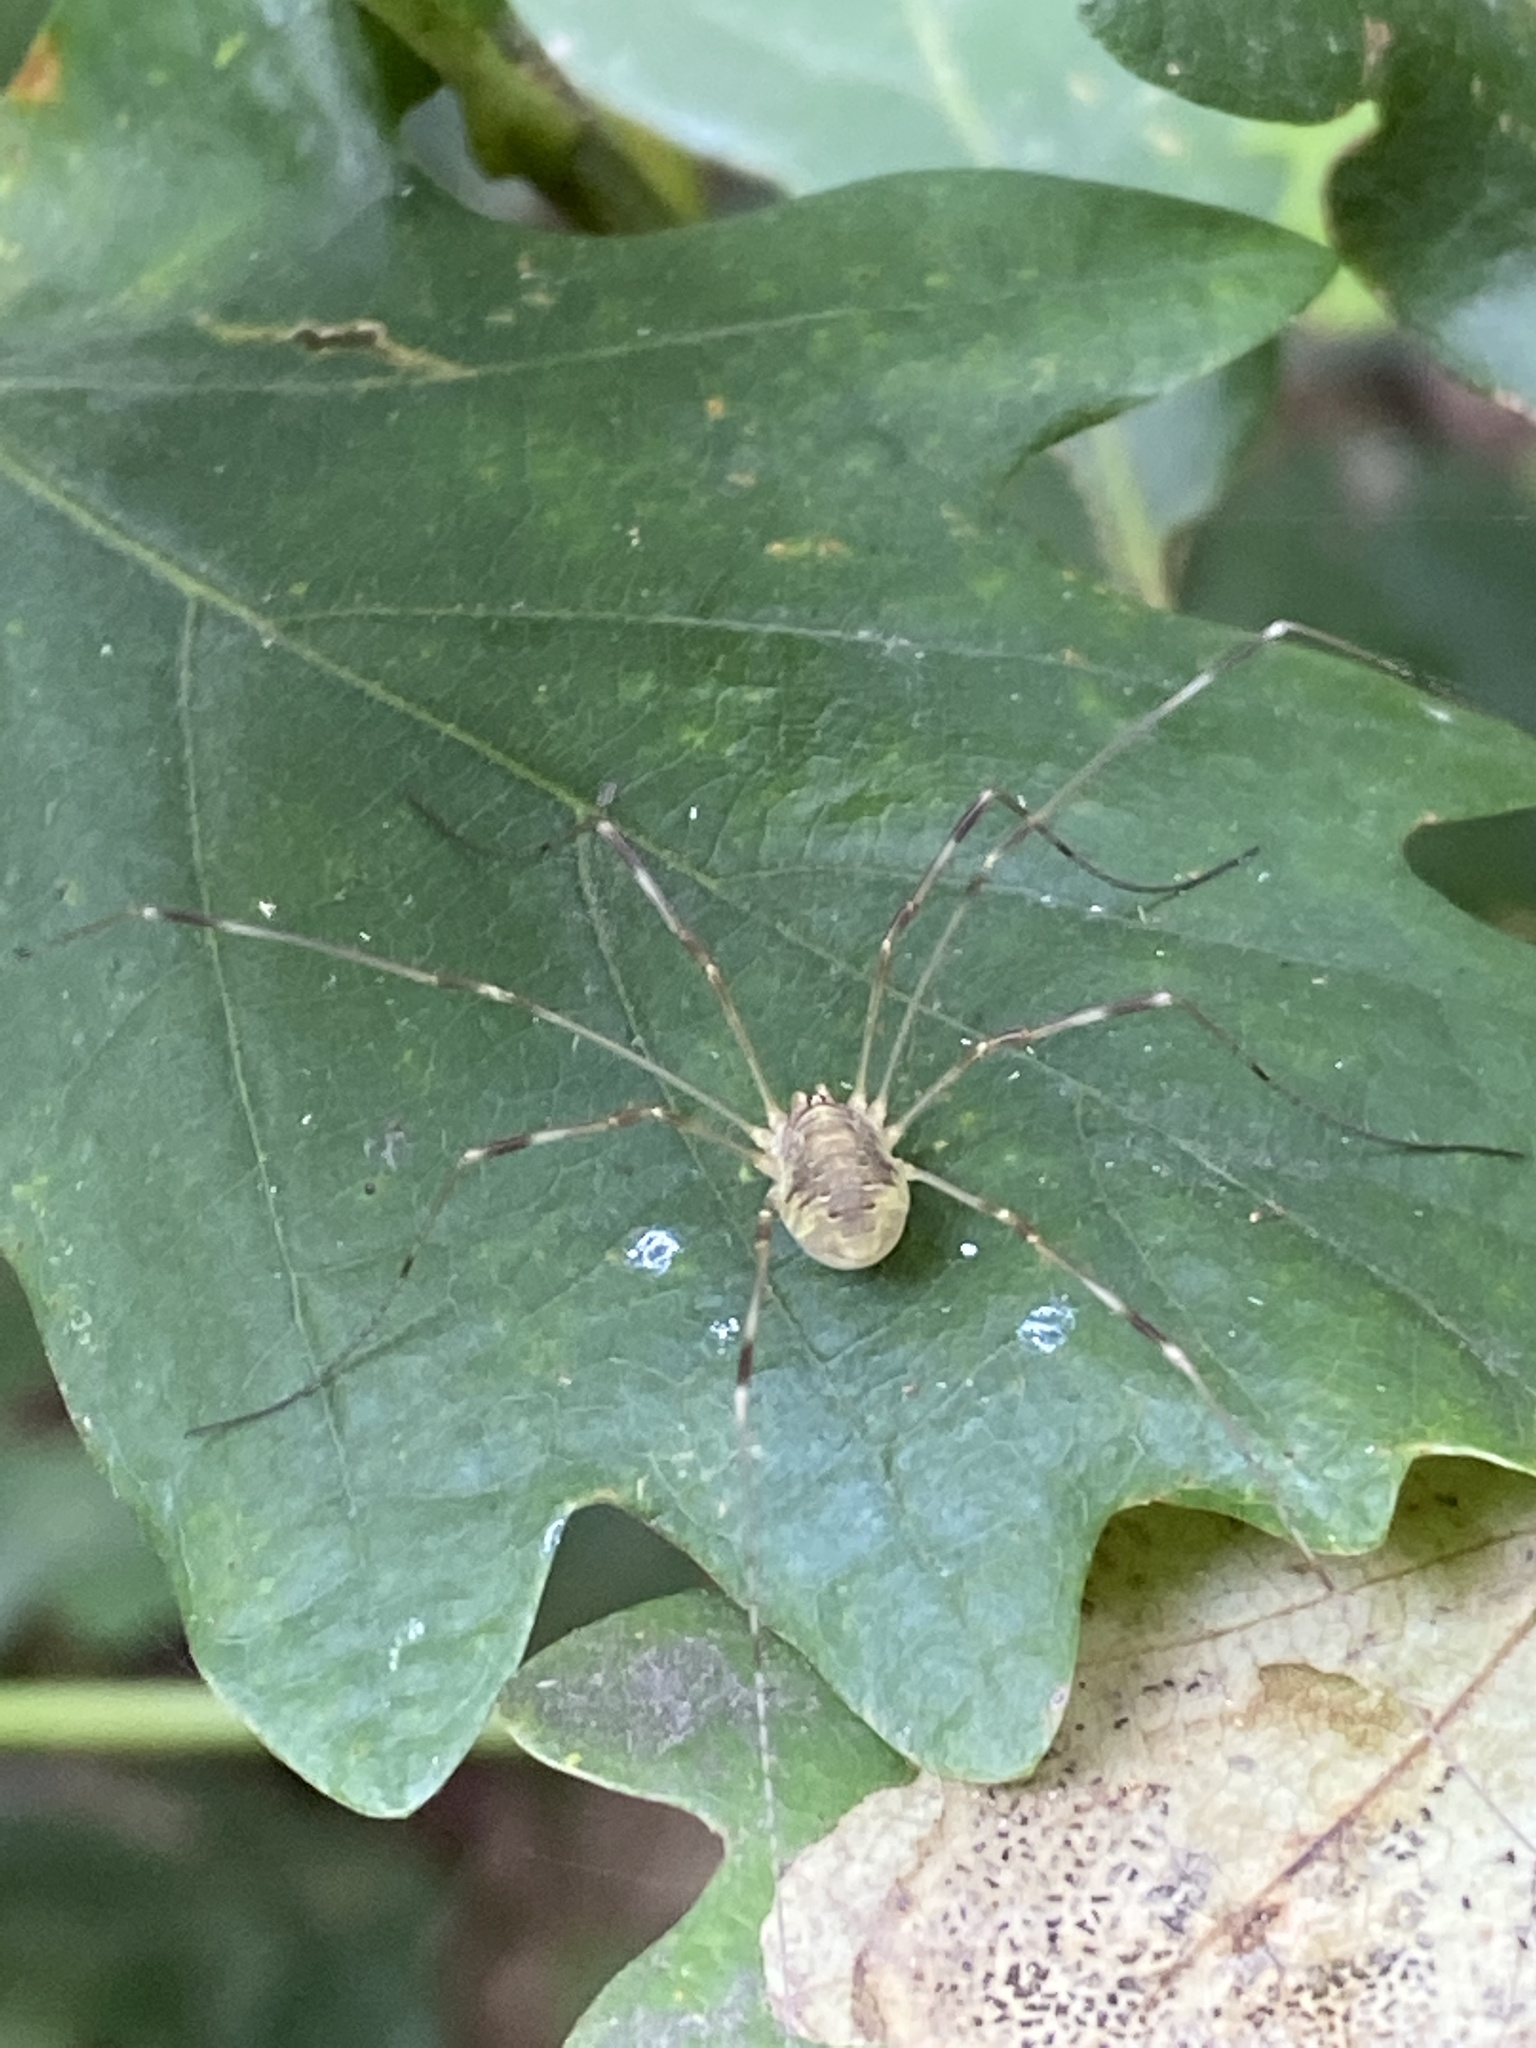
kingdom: Animalia
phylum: Arthropoda
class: Arachnida
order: Opiliones
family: Phalangiidae
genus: Opilio
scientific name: Opilio canestrinii
